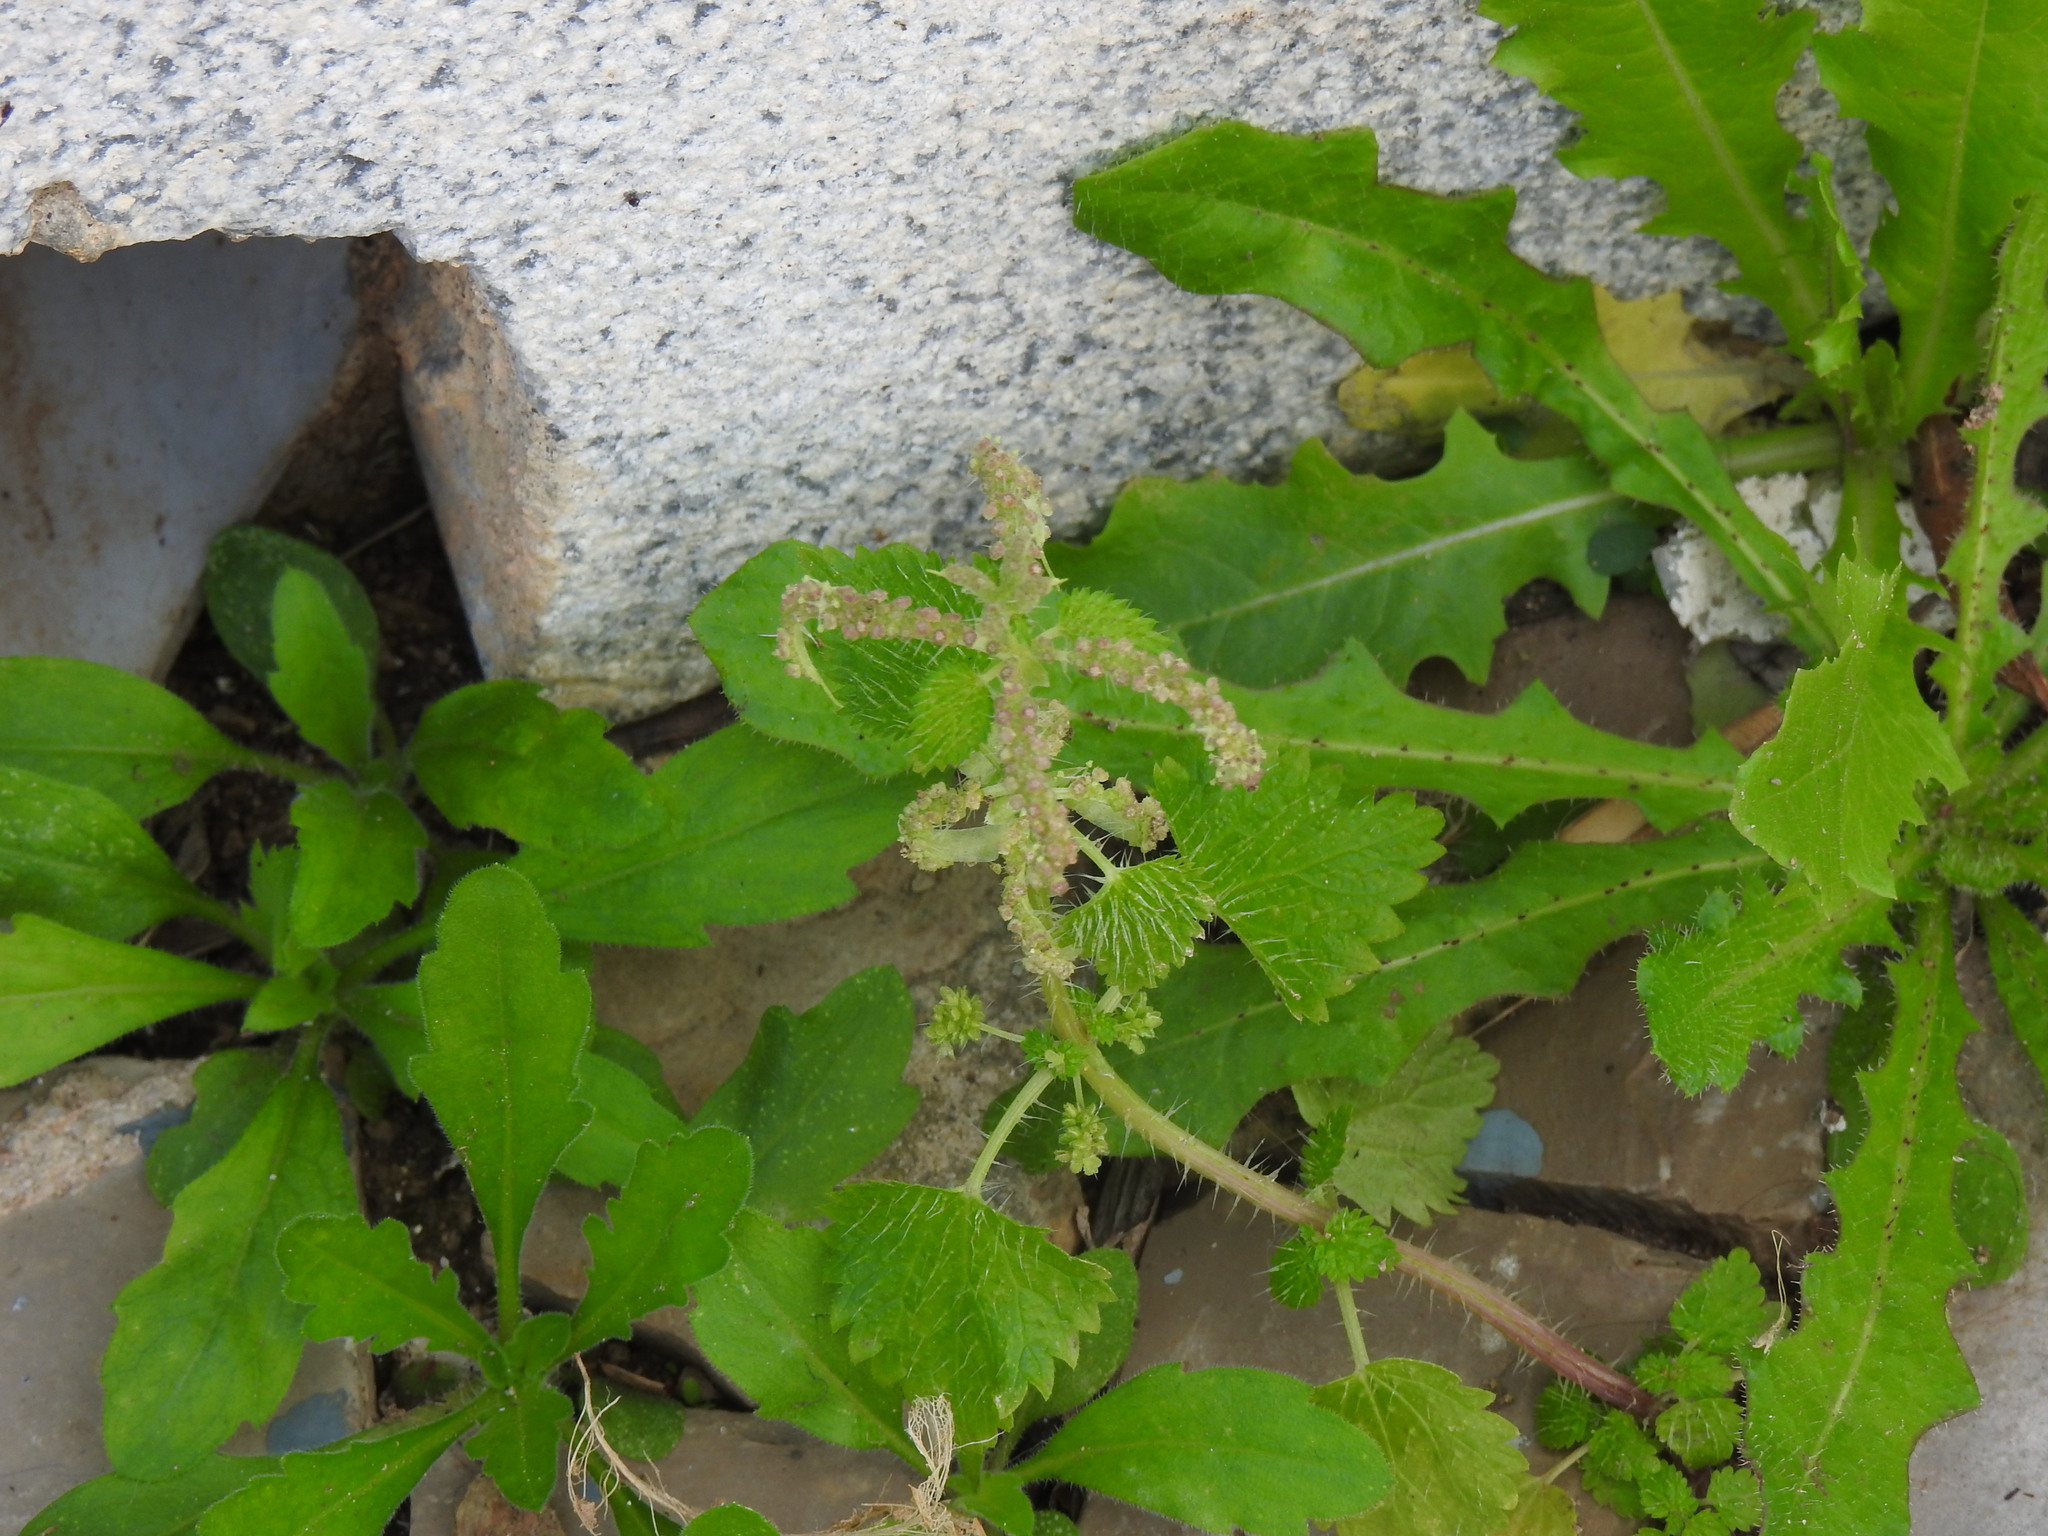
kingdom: Plantae
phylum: Tracheophyta
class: Magnoliopsida
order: Rosales
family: Urticaceae
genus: Urtica
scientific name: Urtica membranacea
